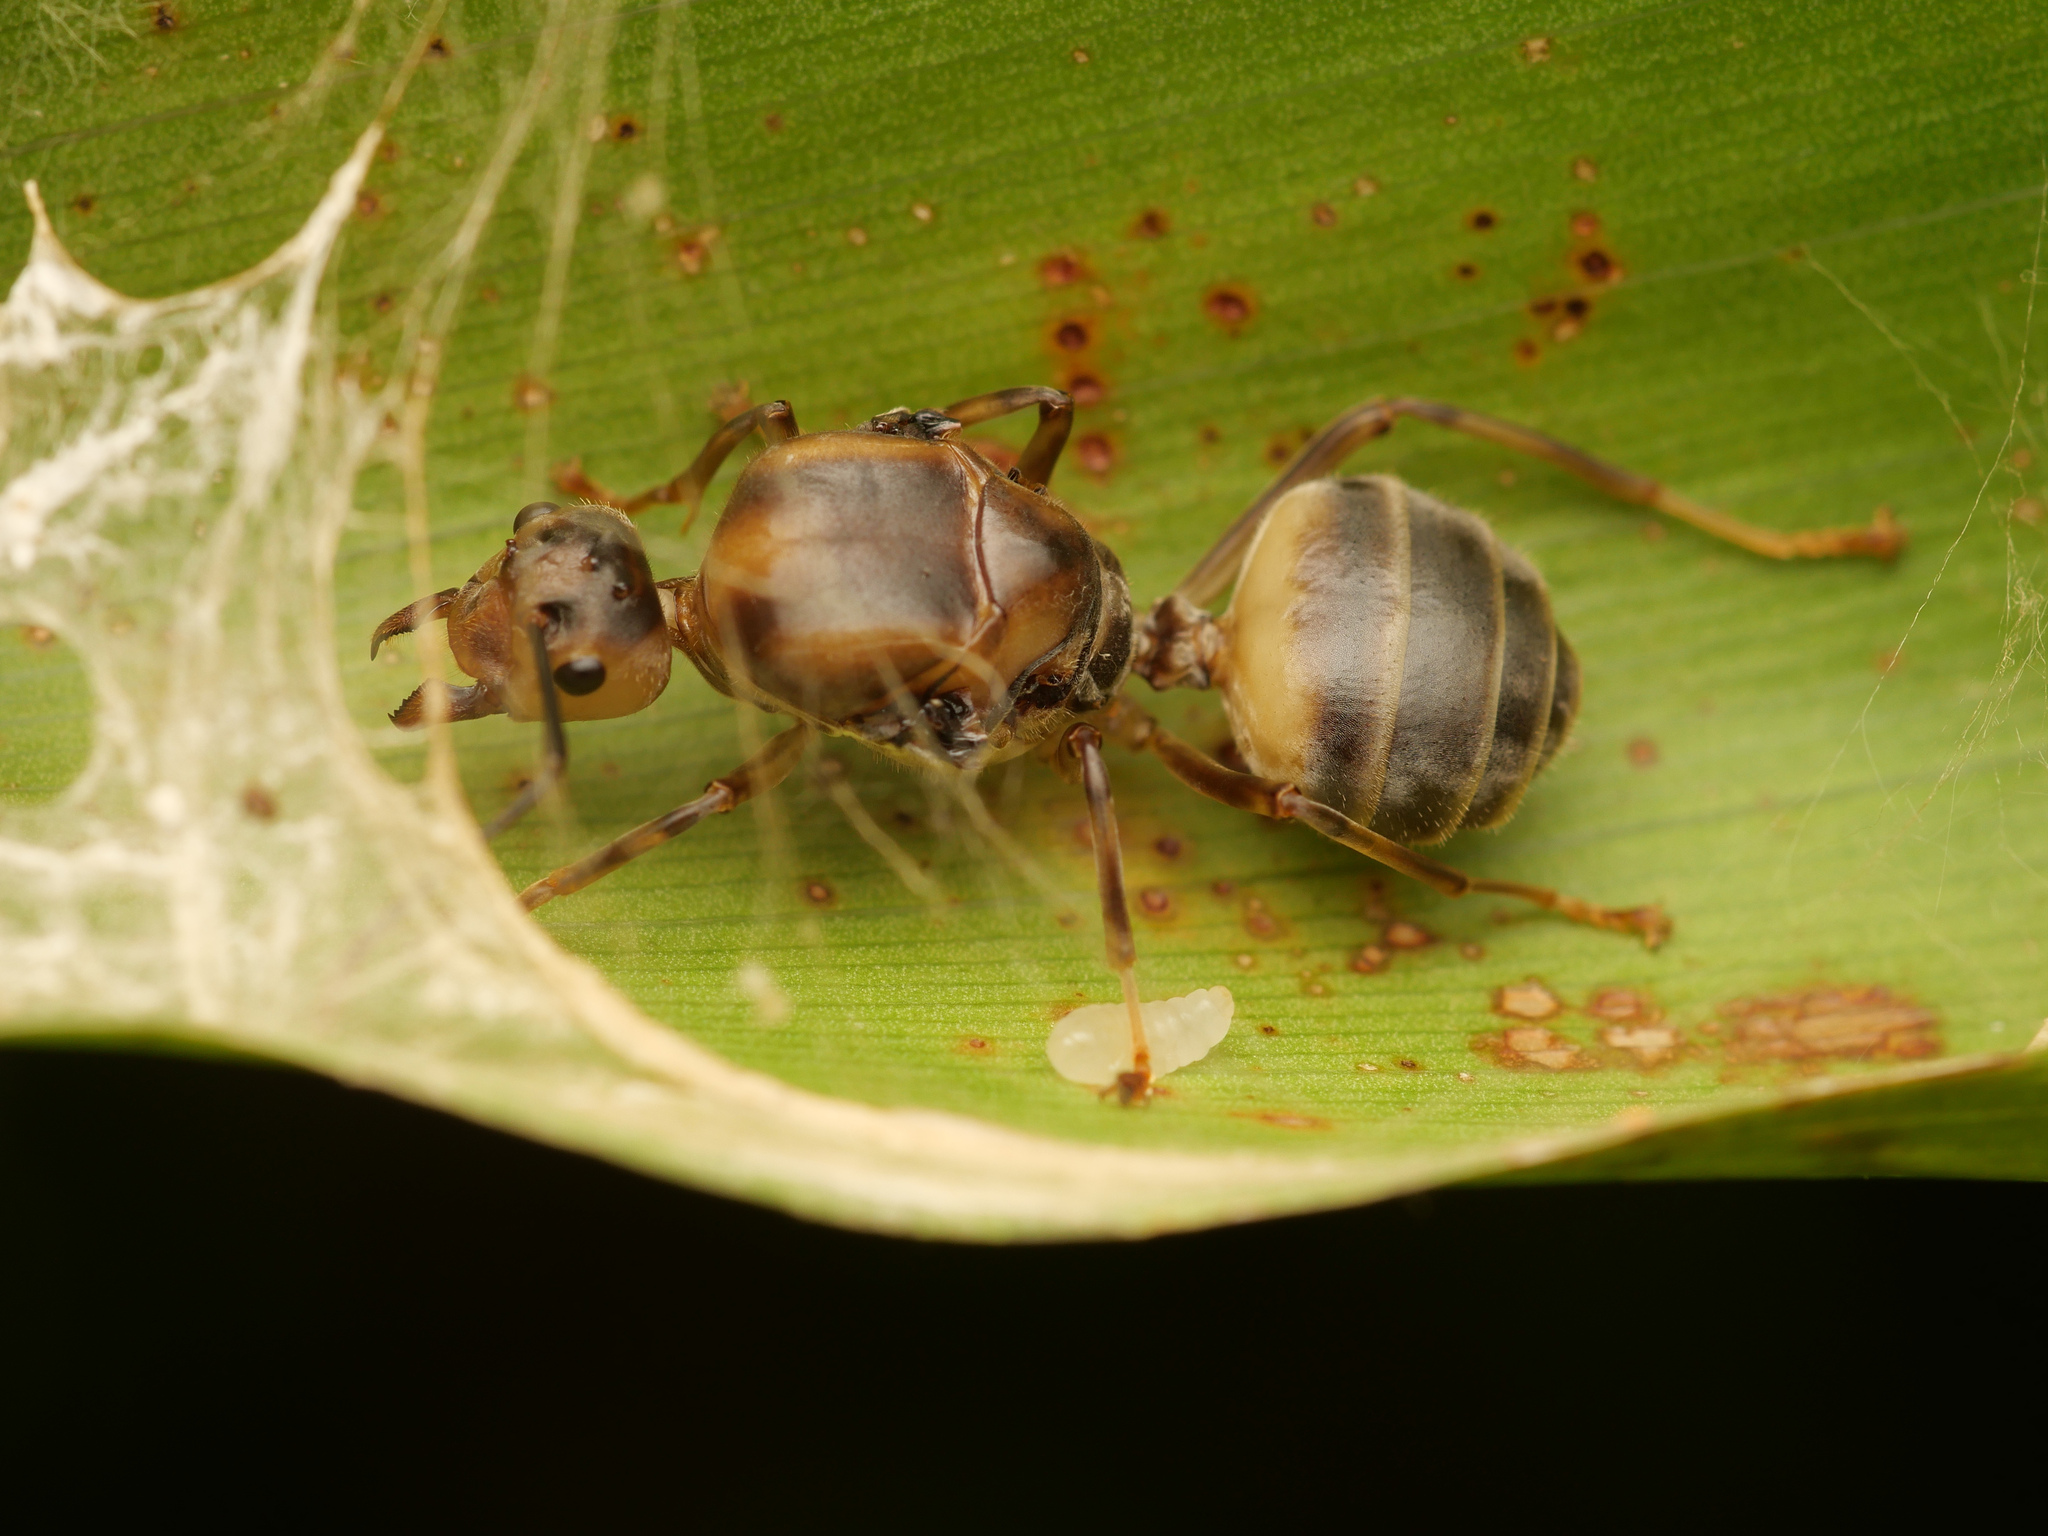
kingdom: Animalia
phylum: Arthropoda
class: Insecta
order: Hymenoptera
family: Formicidae
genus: Oecophylla
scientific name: Oecophylla smaragdina
